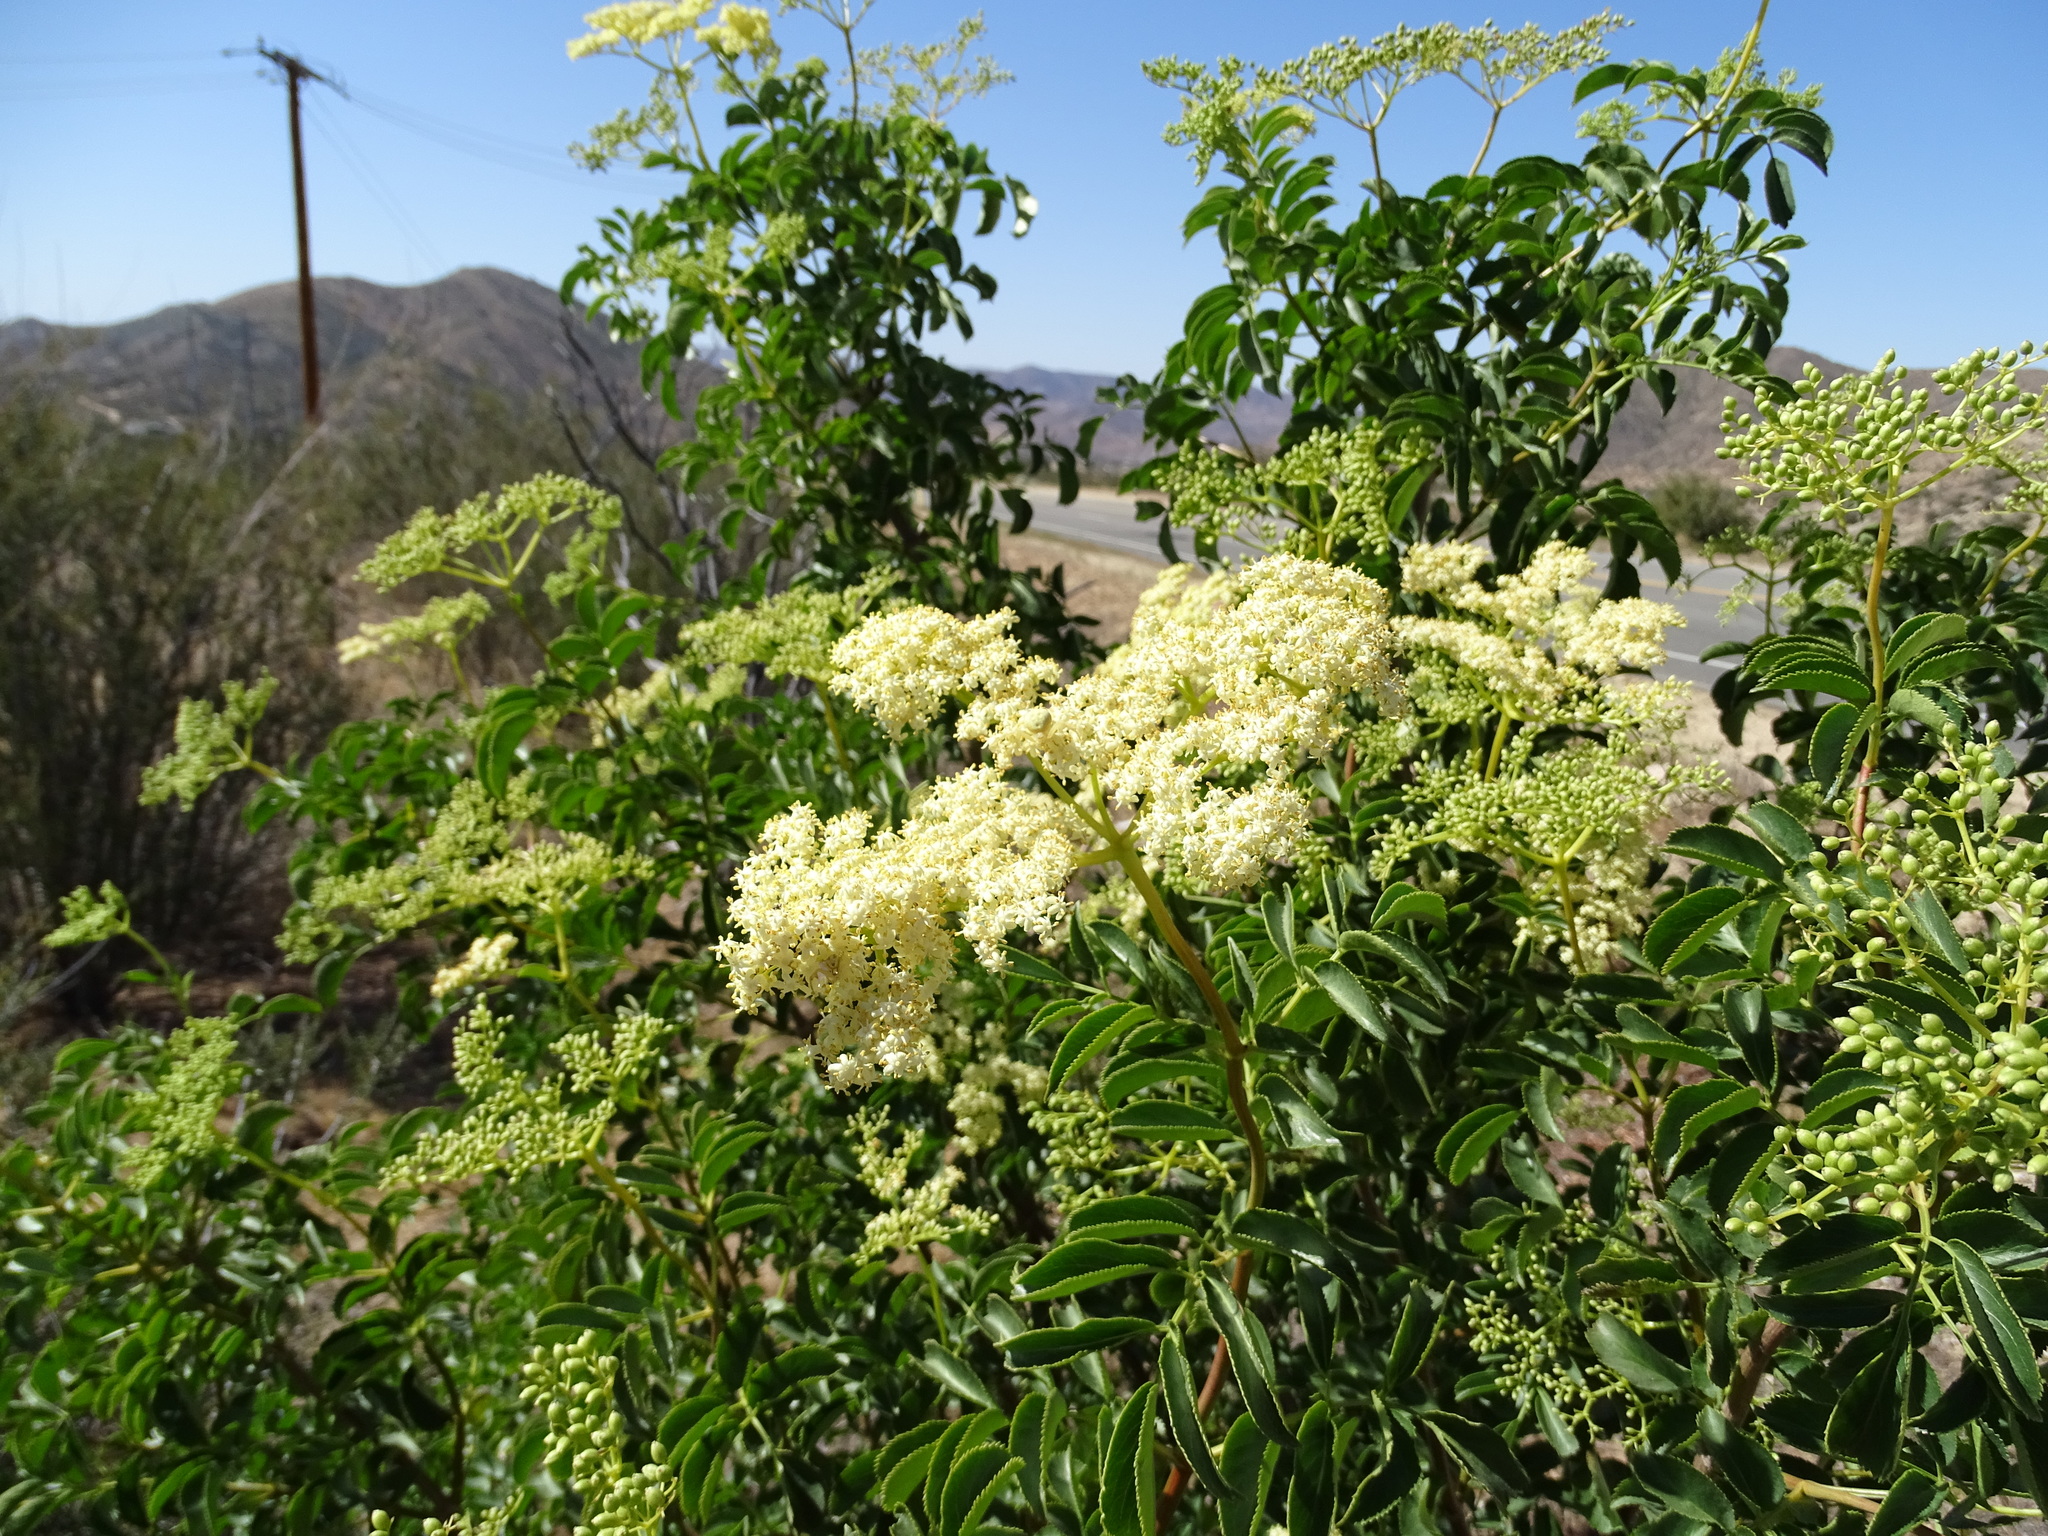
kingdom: Plantae
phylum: Tracheophyta
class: Magnoliopsida
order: Dipsacales
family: Viburnaceae
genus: Sambucus
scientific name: Sambucus cerulea
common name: Blue elder
